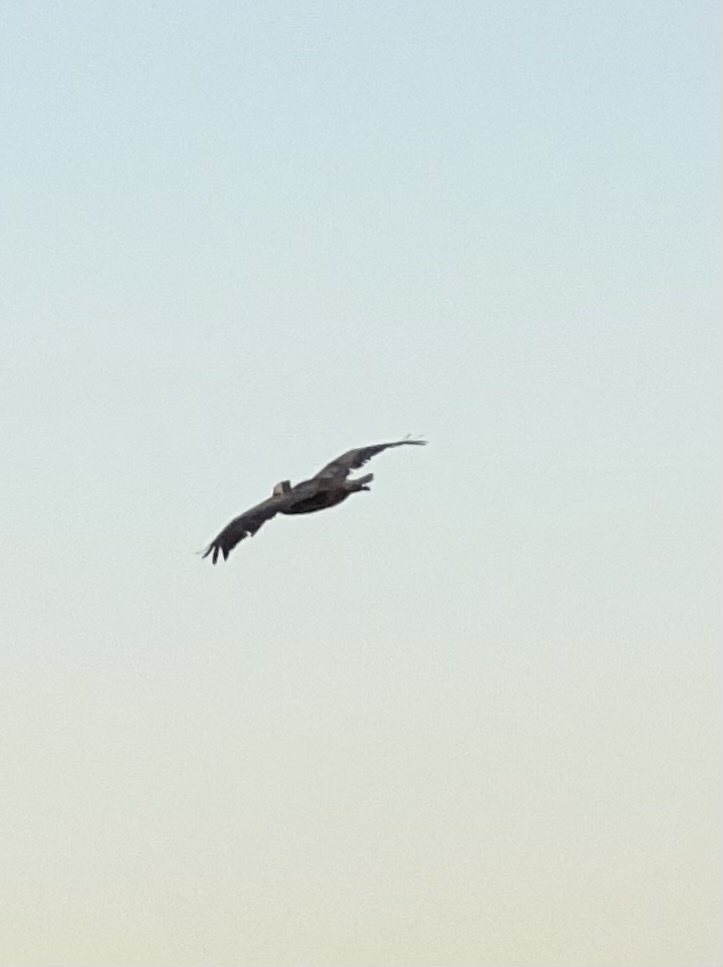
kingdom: Animalia
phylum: Chordata
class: Aves
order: Pelecaniformes
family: Pelecanidae
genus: Pelecanus
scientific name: Pelecanus occidentalis
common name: Brown pelican
